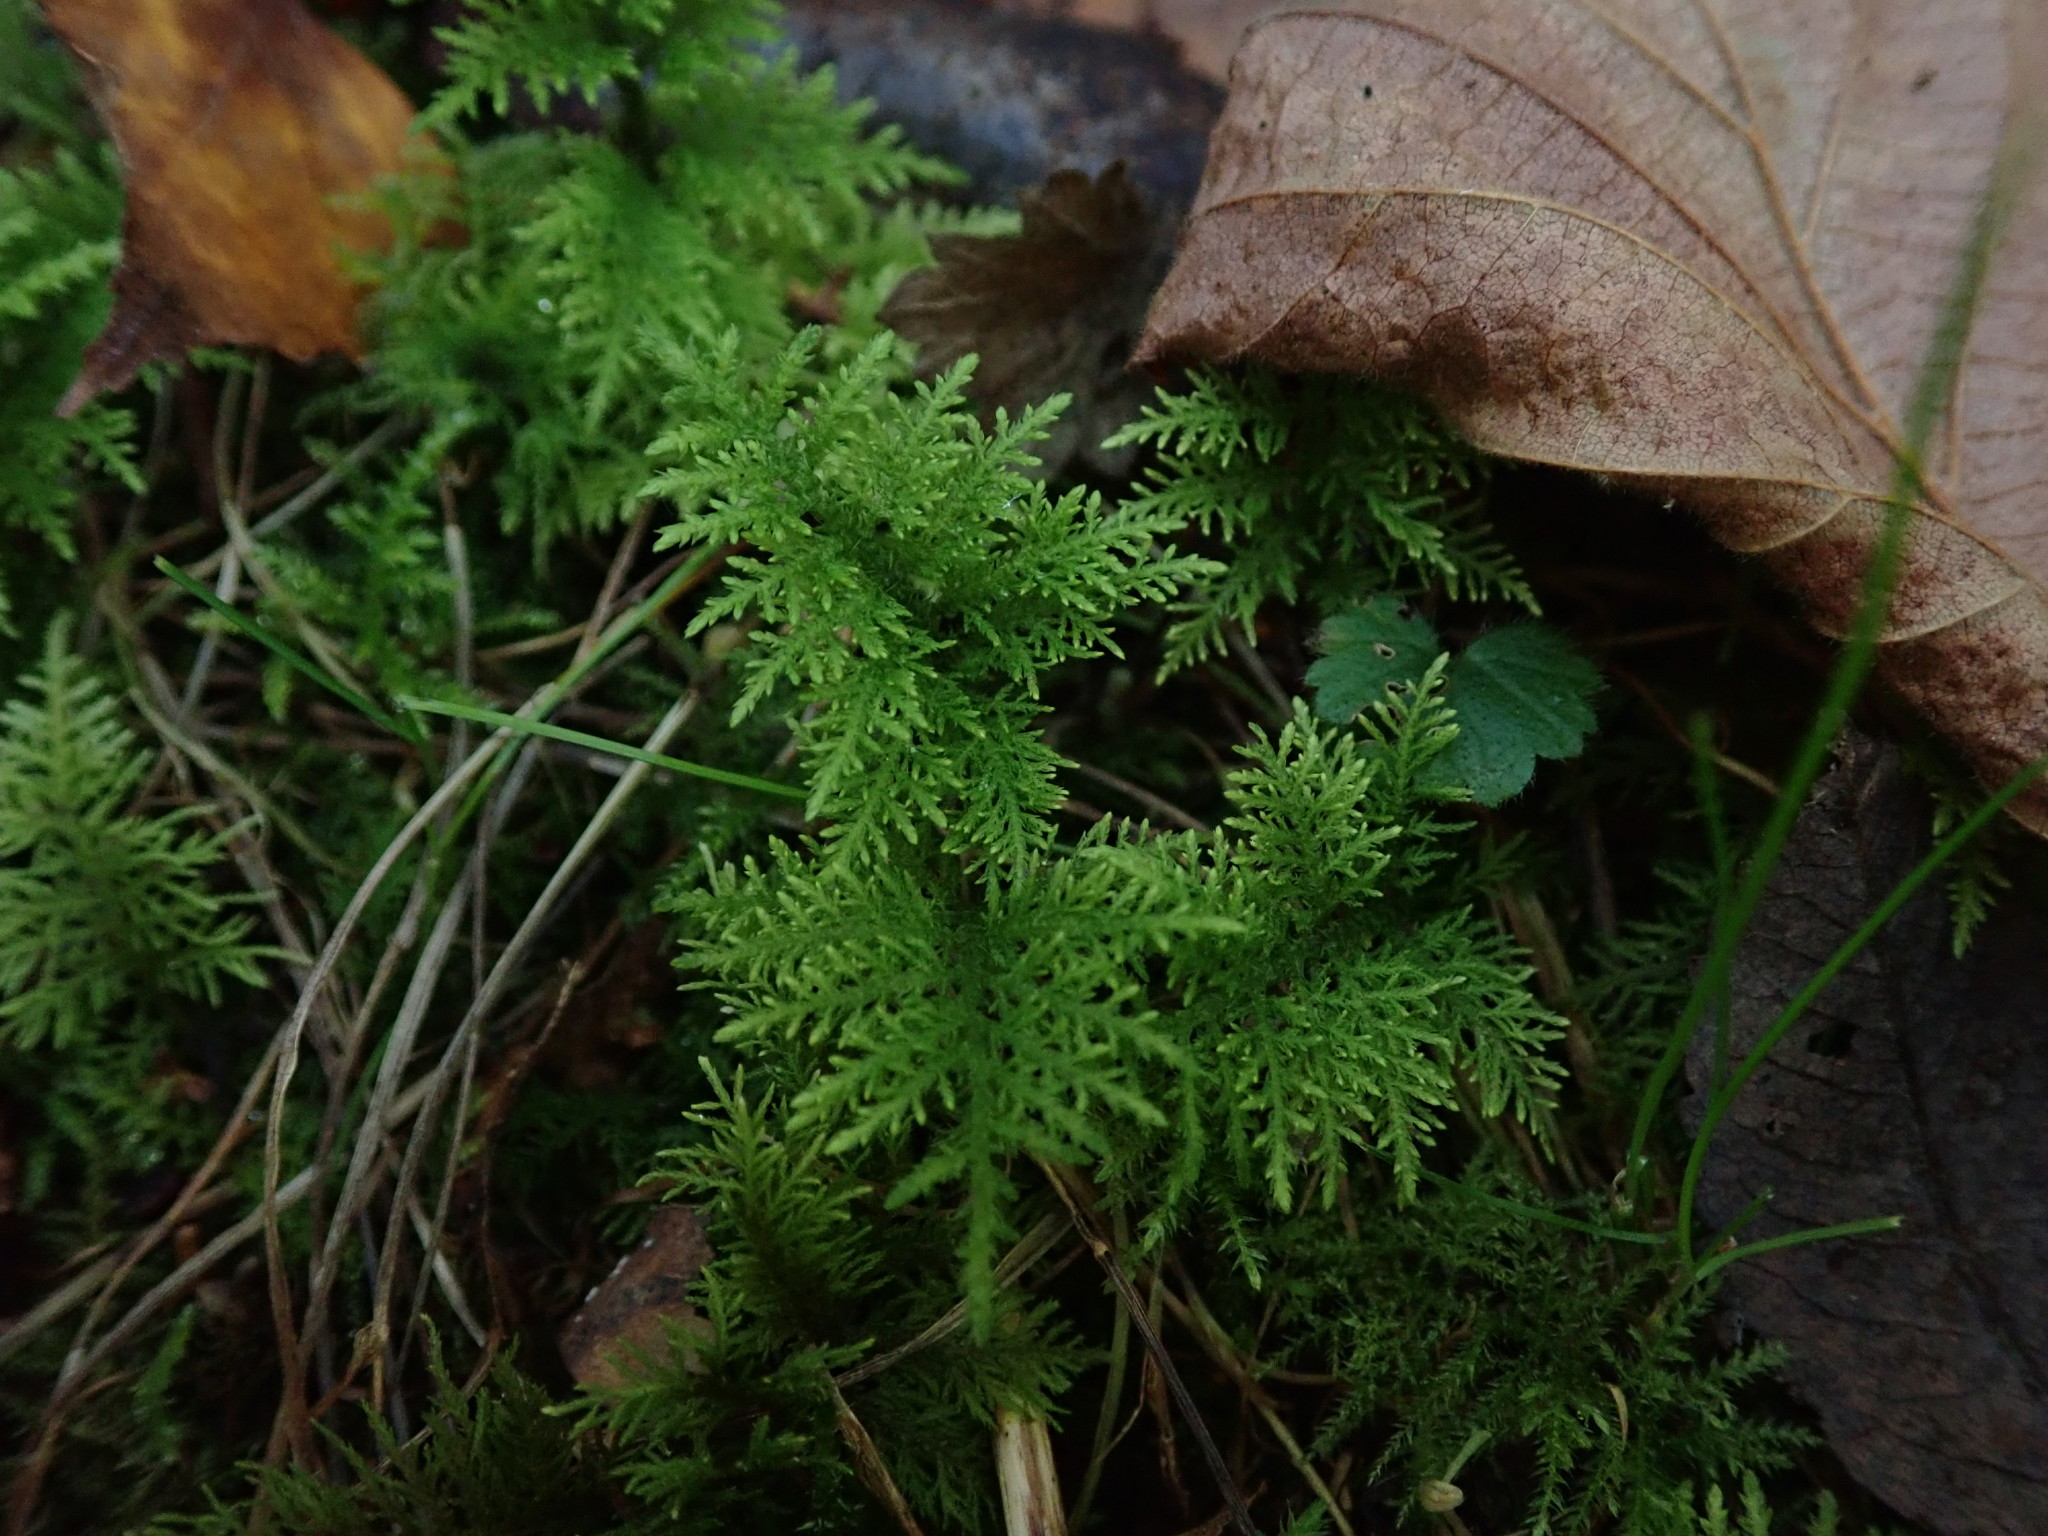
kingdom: Plantae
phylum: Bryophyta
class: Bryopsida
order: Hypnales
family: Thuidiaceae
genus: Thuidium
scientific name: Thuidium tamariscinum
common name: Common tamarisk-moss
